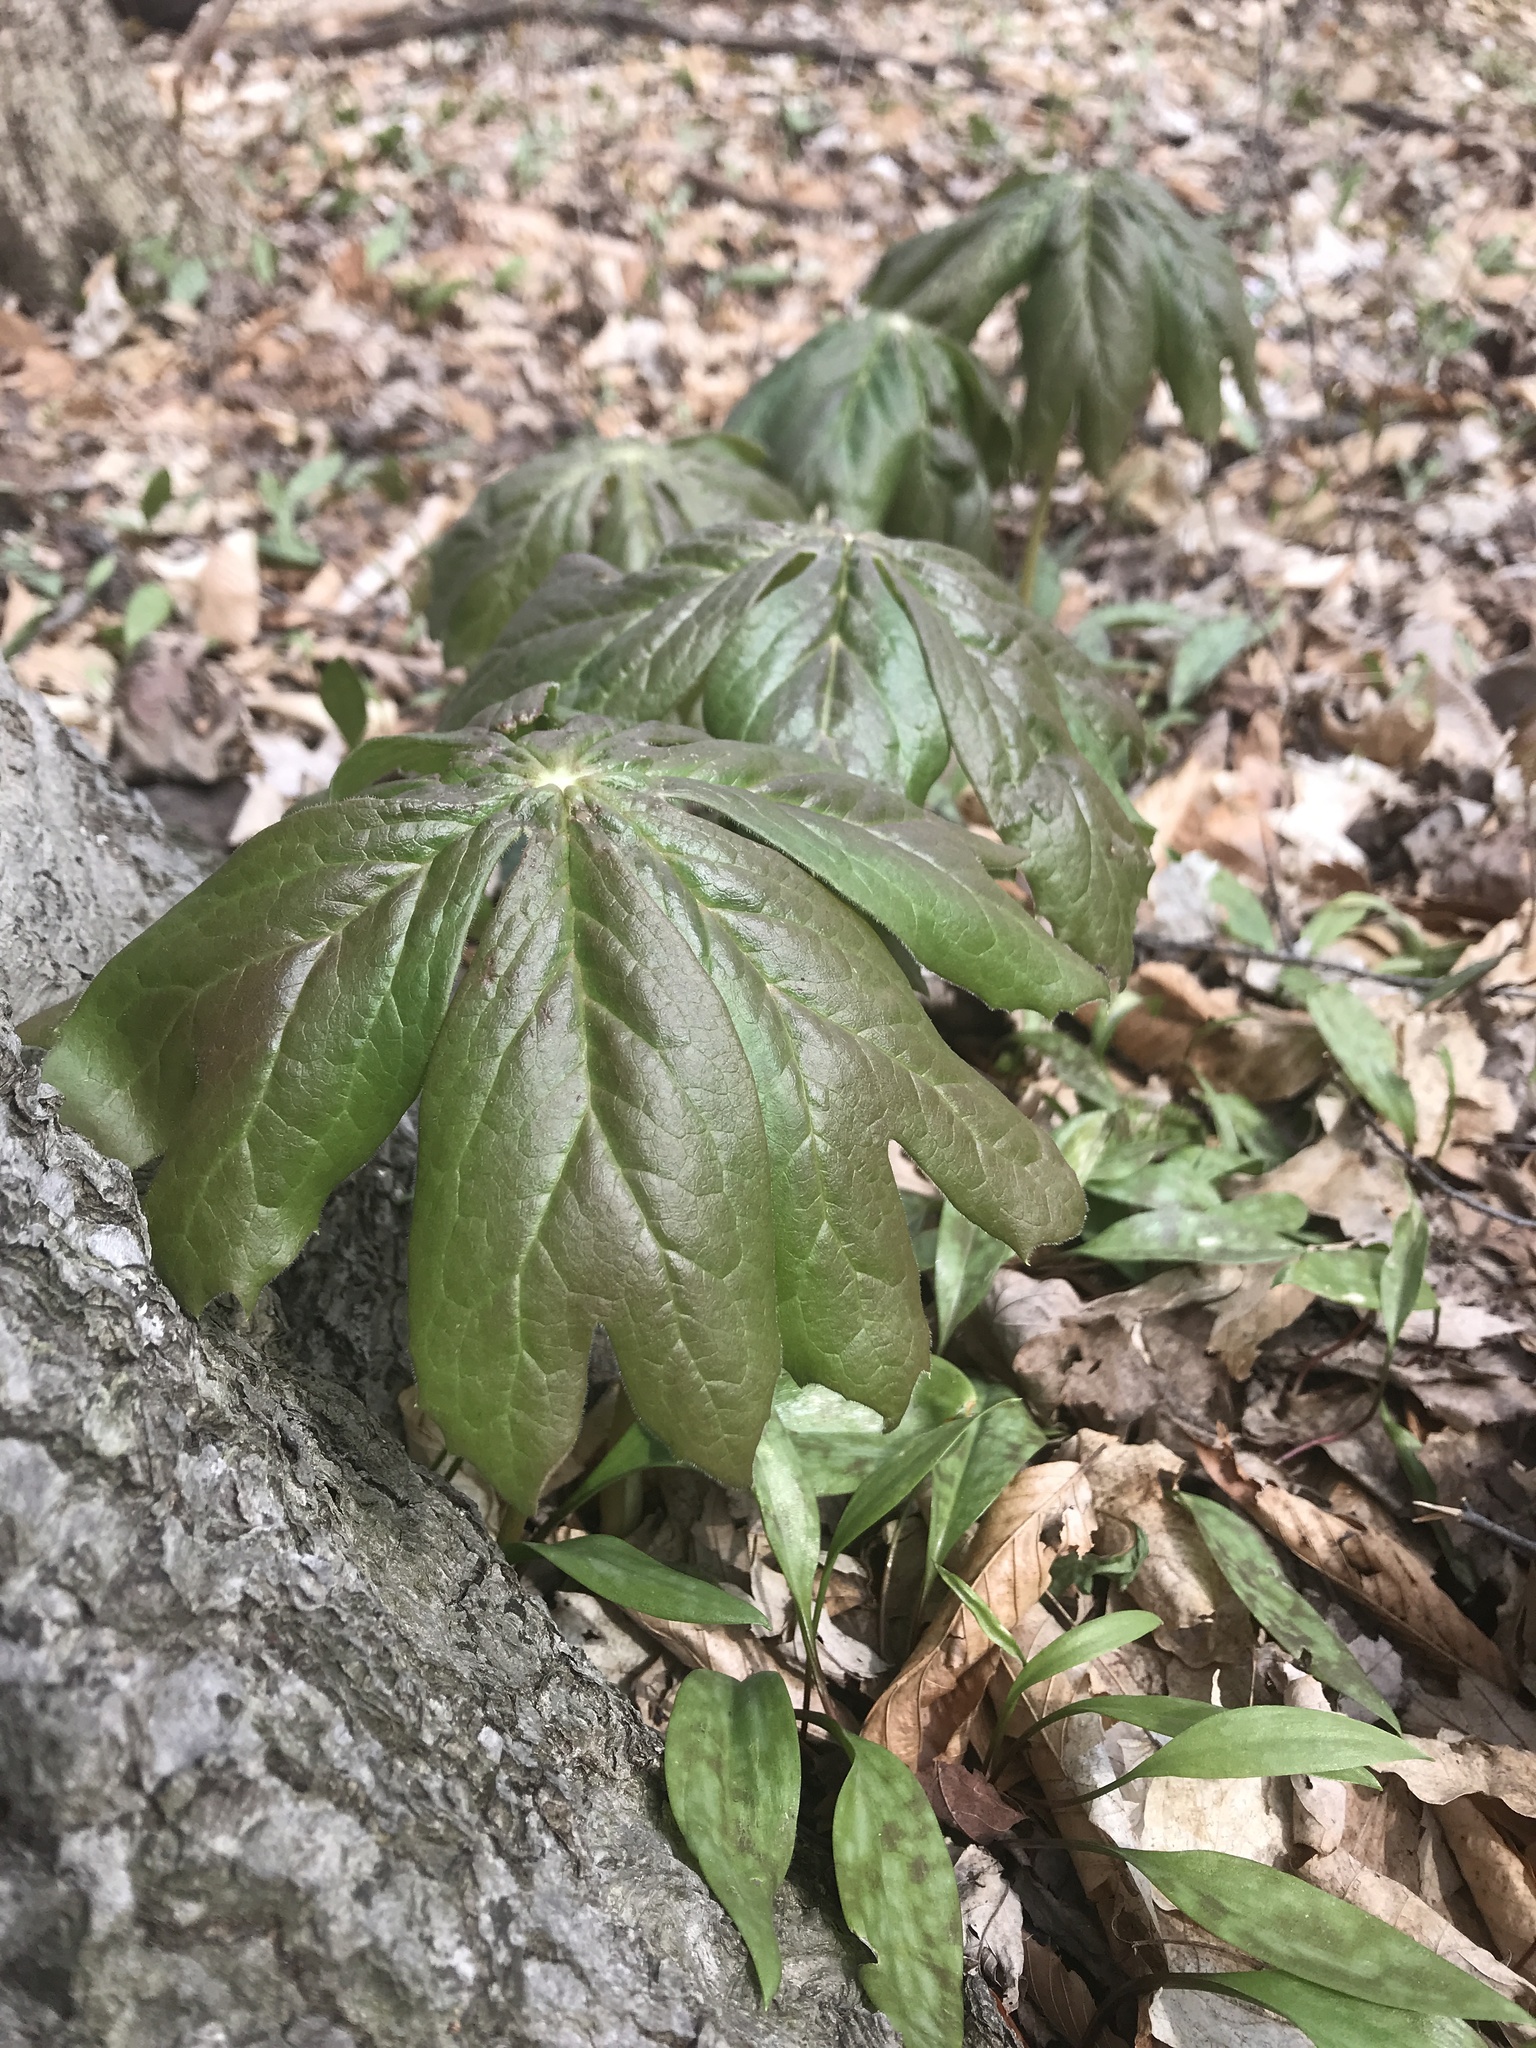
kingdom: Plantae
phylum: Tracheophyta
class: Magnoliopsida
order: Ranunculales
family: Berberidaceae
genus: Podophyllum
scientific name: Podophyllum peltatum
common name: Wild mandrake
